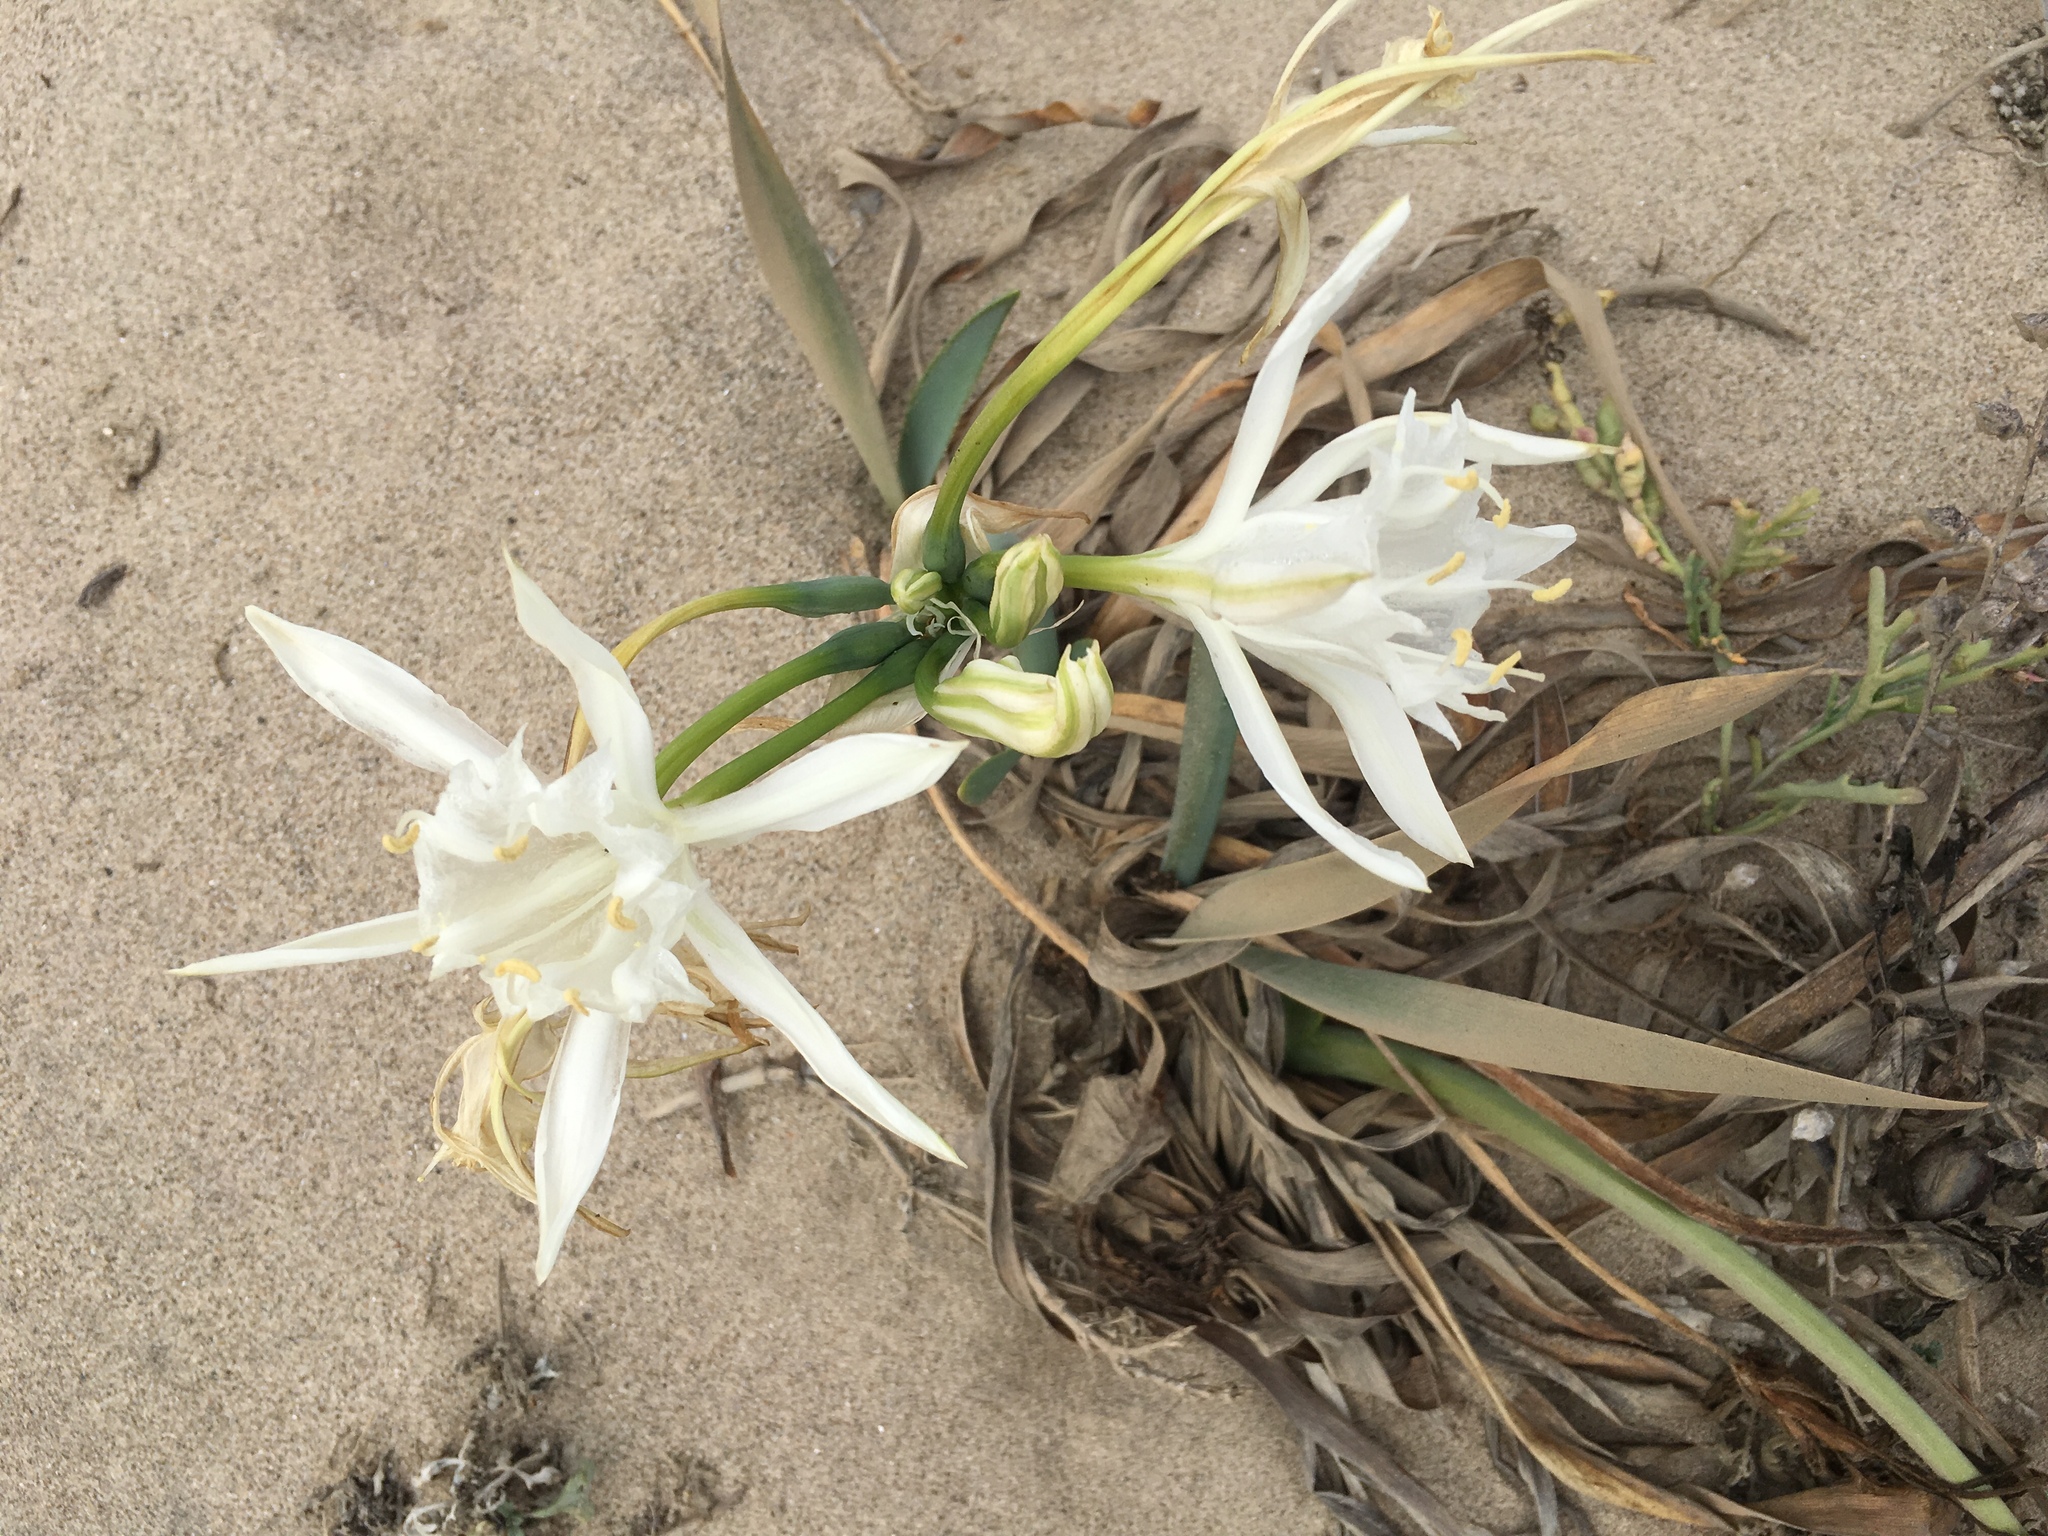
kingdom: Plantae
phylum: Tracheophyta
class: Liliopsida
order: Asparagales
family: Amaryllidaceae
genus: Pancratium
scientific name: Pancratium maritimum
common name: Sea-daffodil
